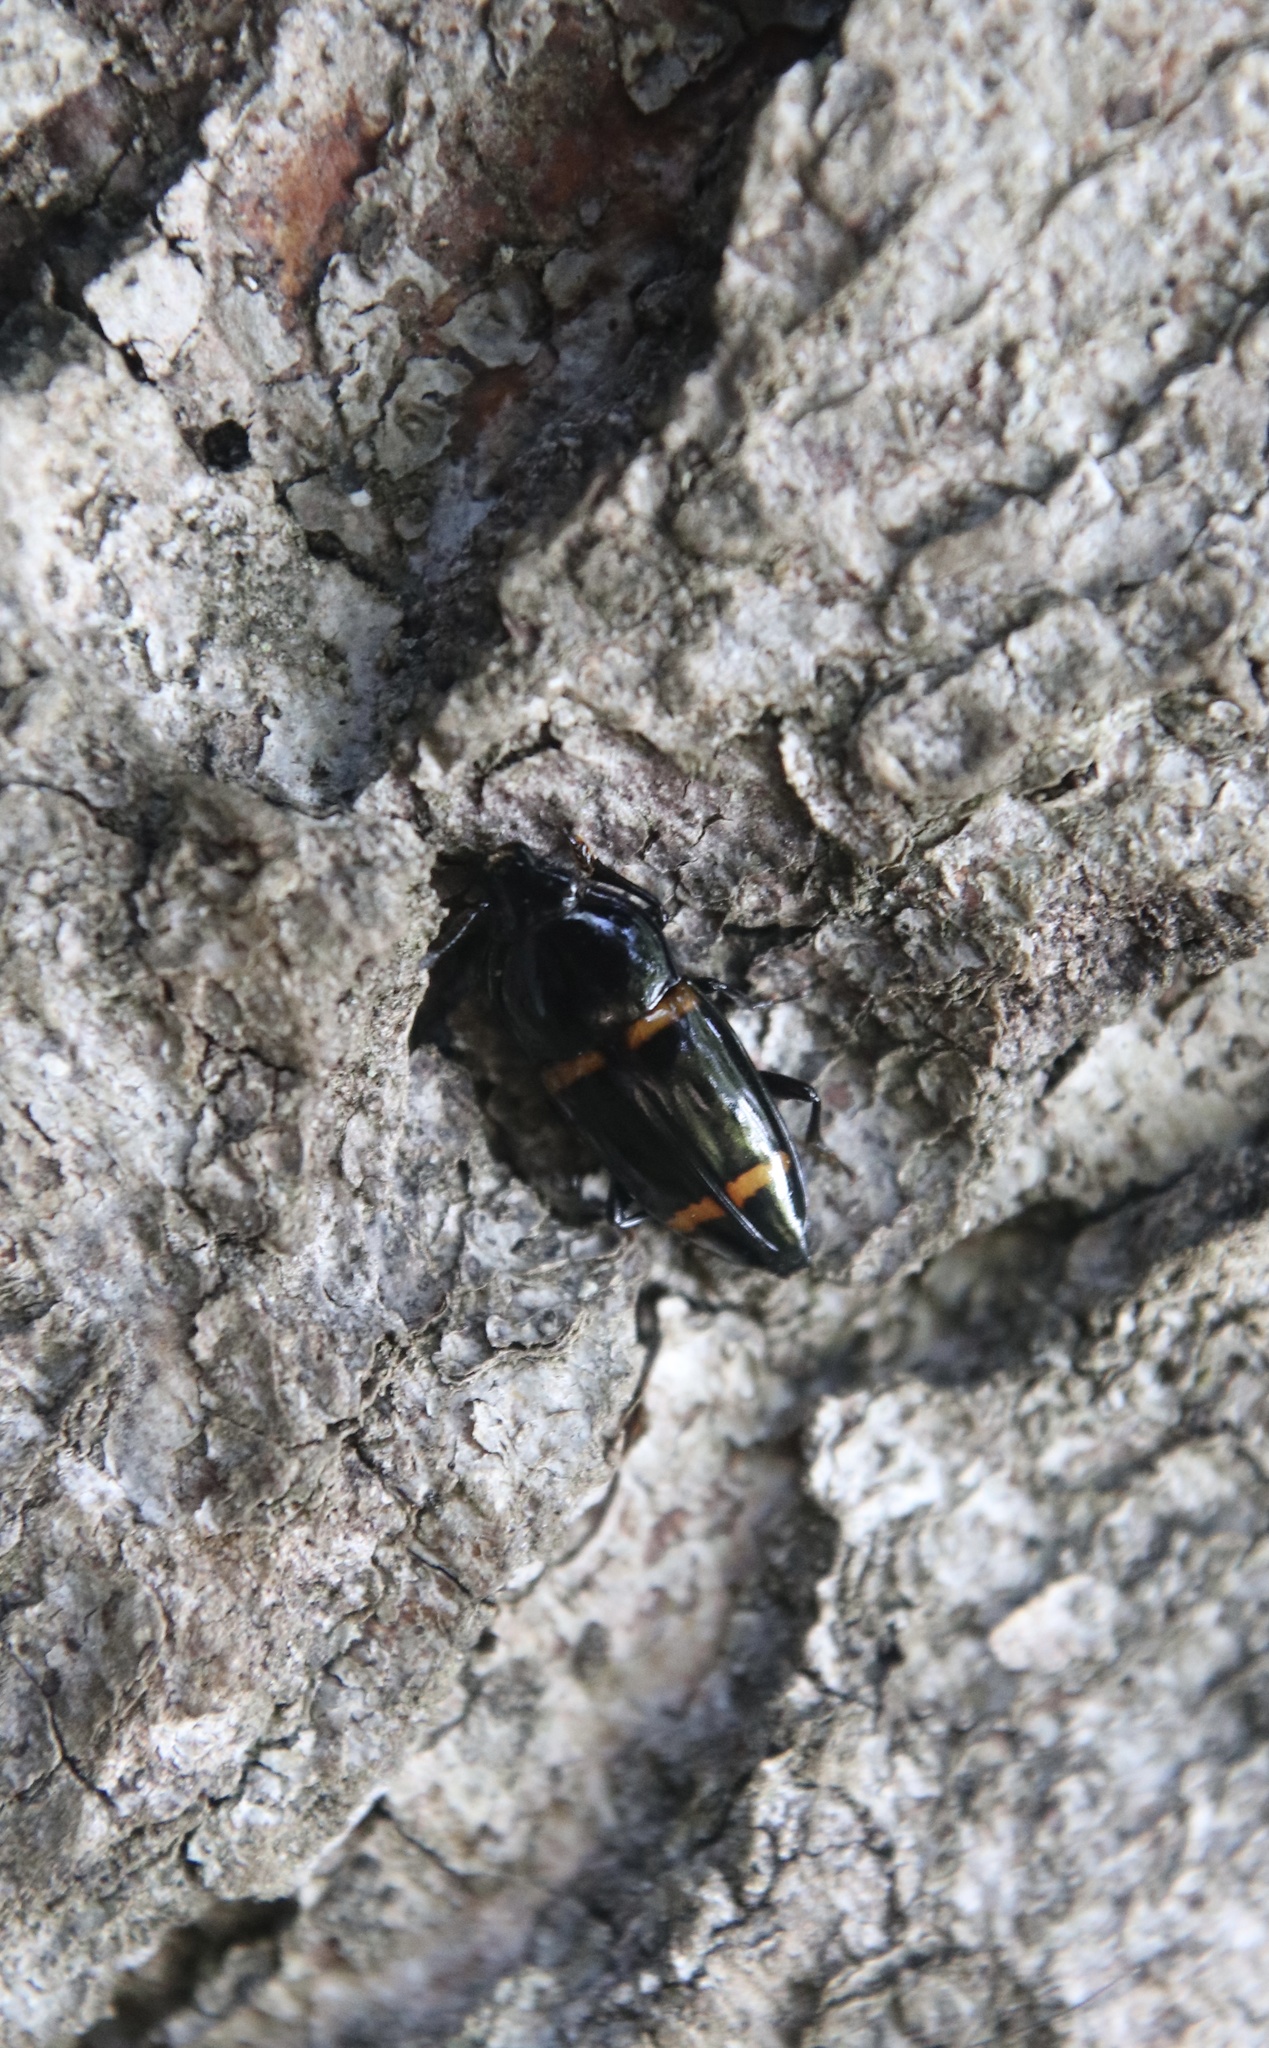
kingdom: Animalia
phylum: Arthropoda
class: Insecta
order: Coleoptera
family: Nitidulidae
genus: Lioschema
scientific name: Lioschema
